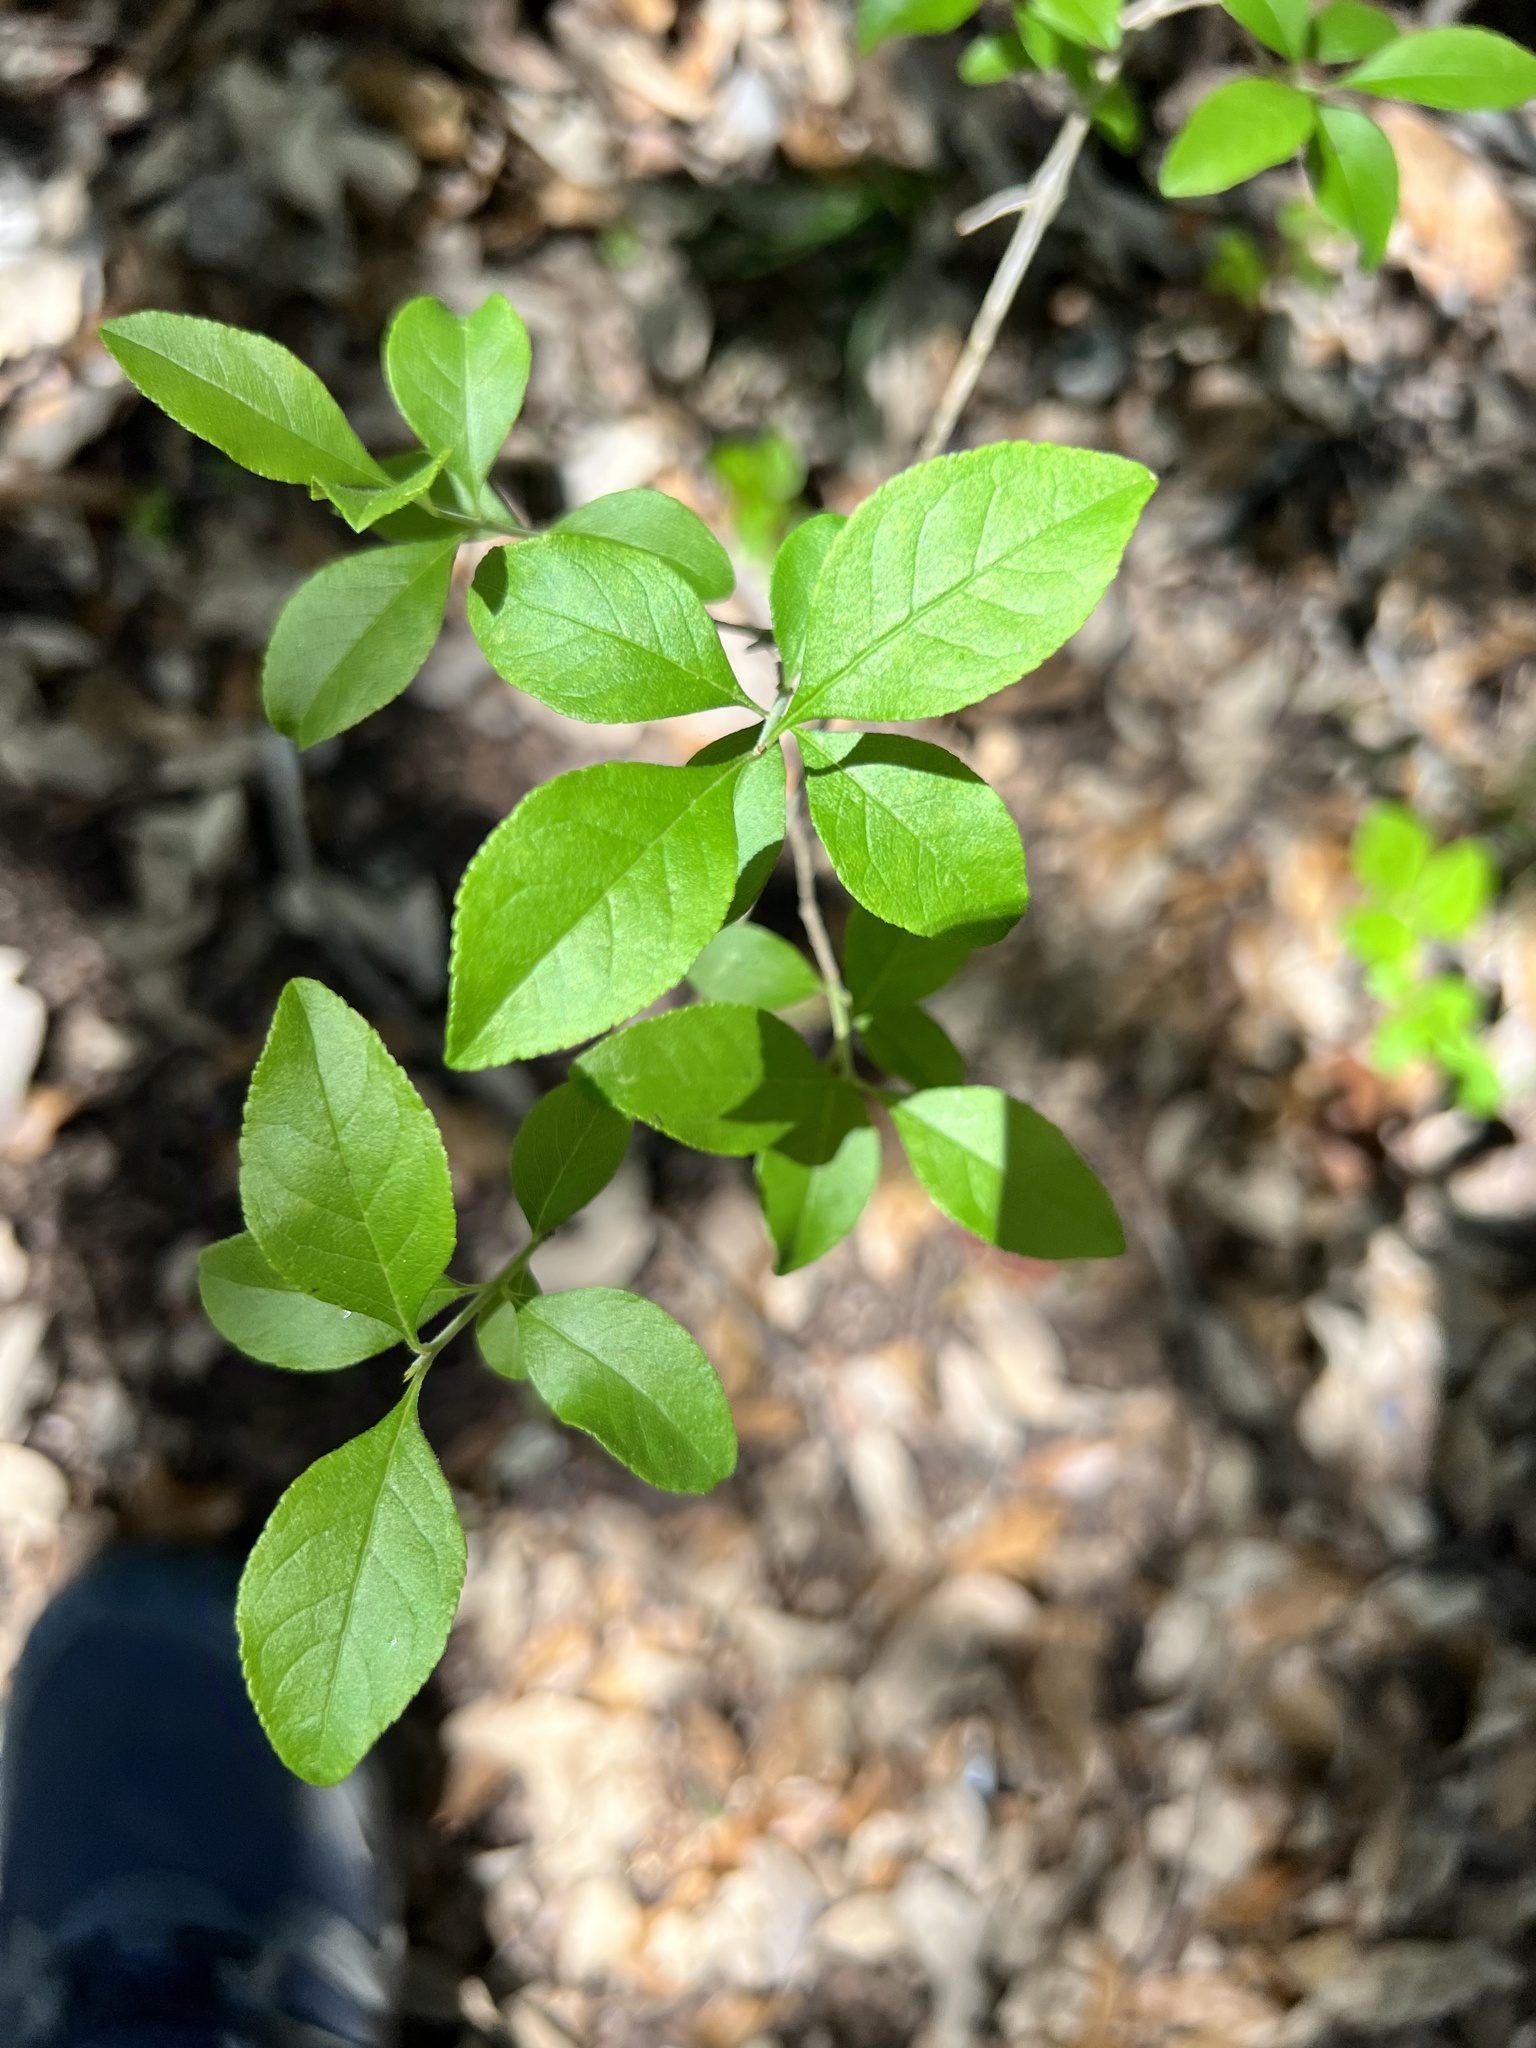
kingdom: Plantae
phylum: Tracheophyta
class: Magnoliopsida
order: Lamiales
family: Oleaceae
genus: Forestiera
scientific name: Forestiera pubescens
